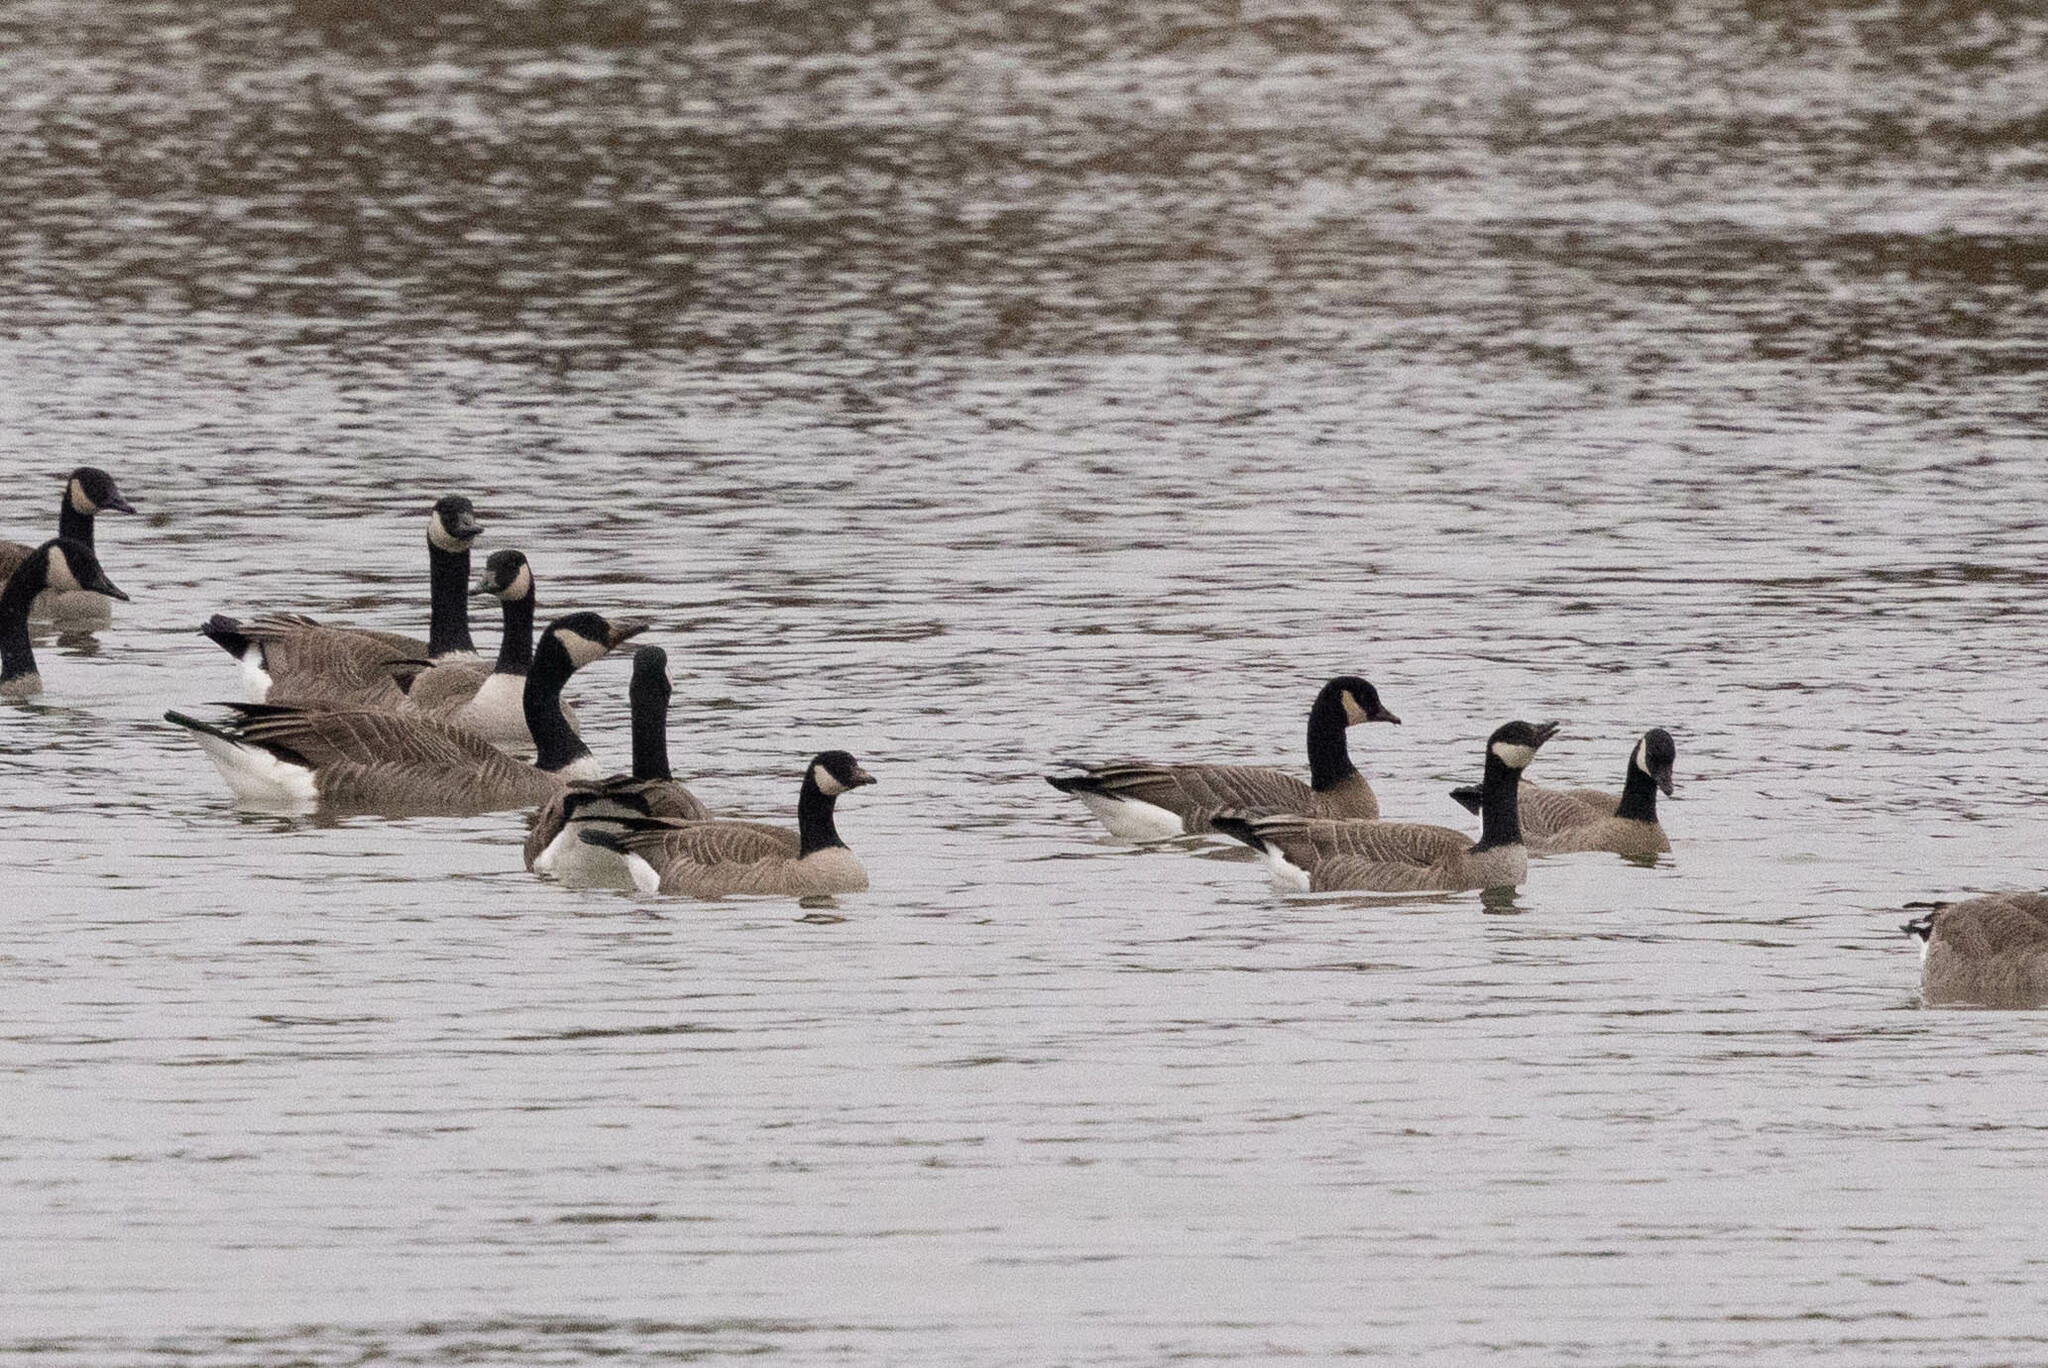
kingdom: Animalia
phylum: Chordata
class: Aves
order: Anseriformes
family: Anatidae
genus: Branta
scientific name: Branta hutchinsii
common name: Cackling goose
